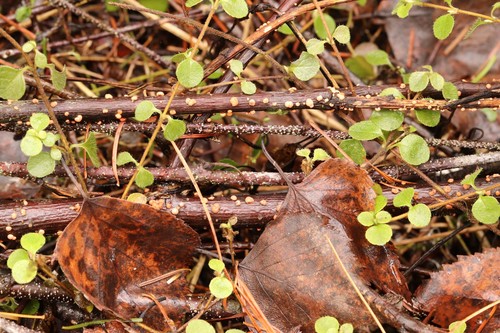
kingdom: Fungi
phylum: Ascomycota
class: Sordariomycetes
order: Hypocreales
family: Nectriaceae
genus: Nectria
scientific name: Nectria cinnabarina
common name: Coral spot
